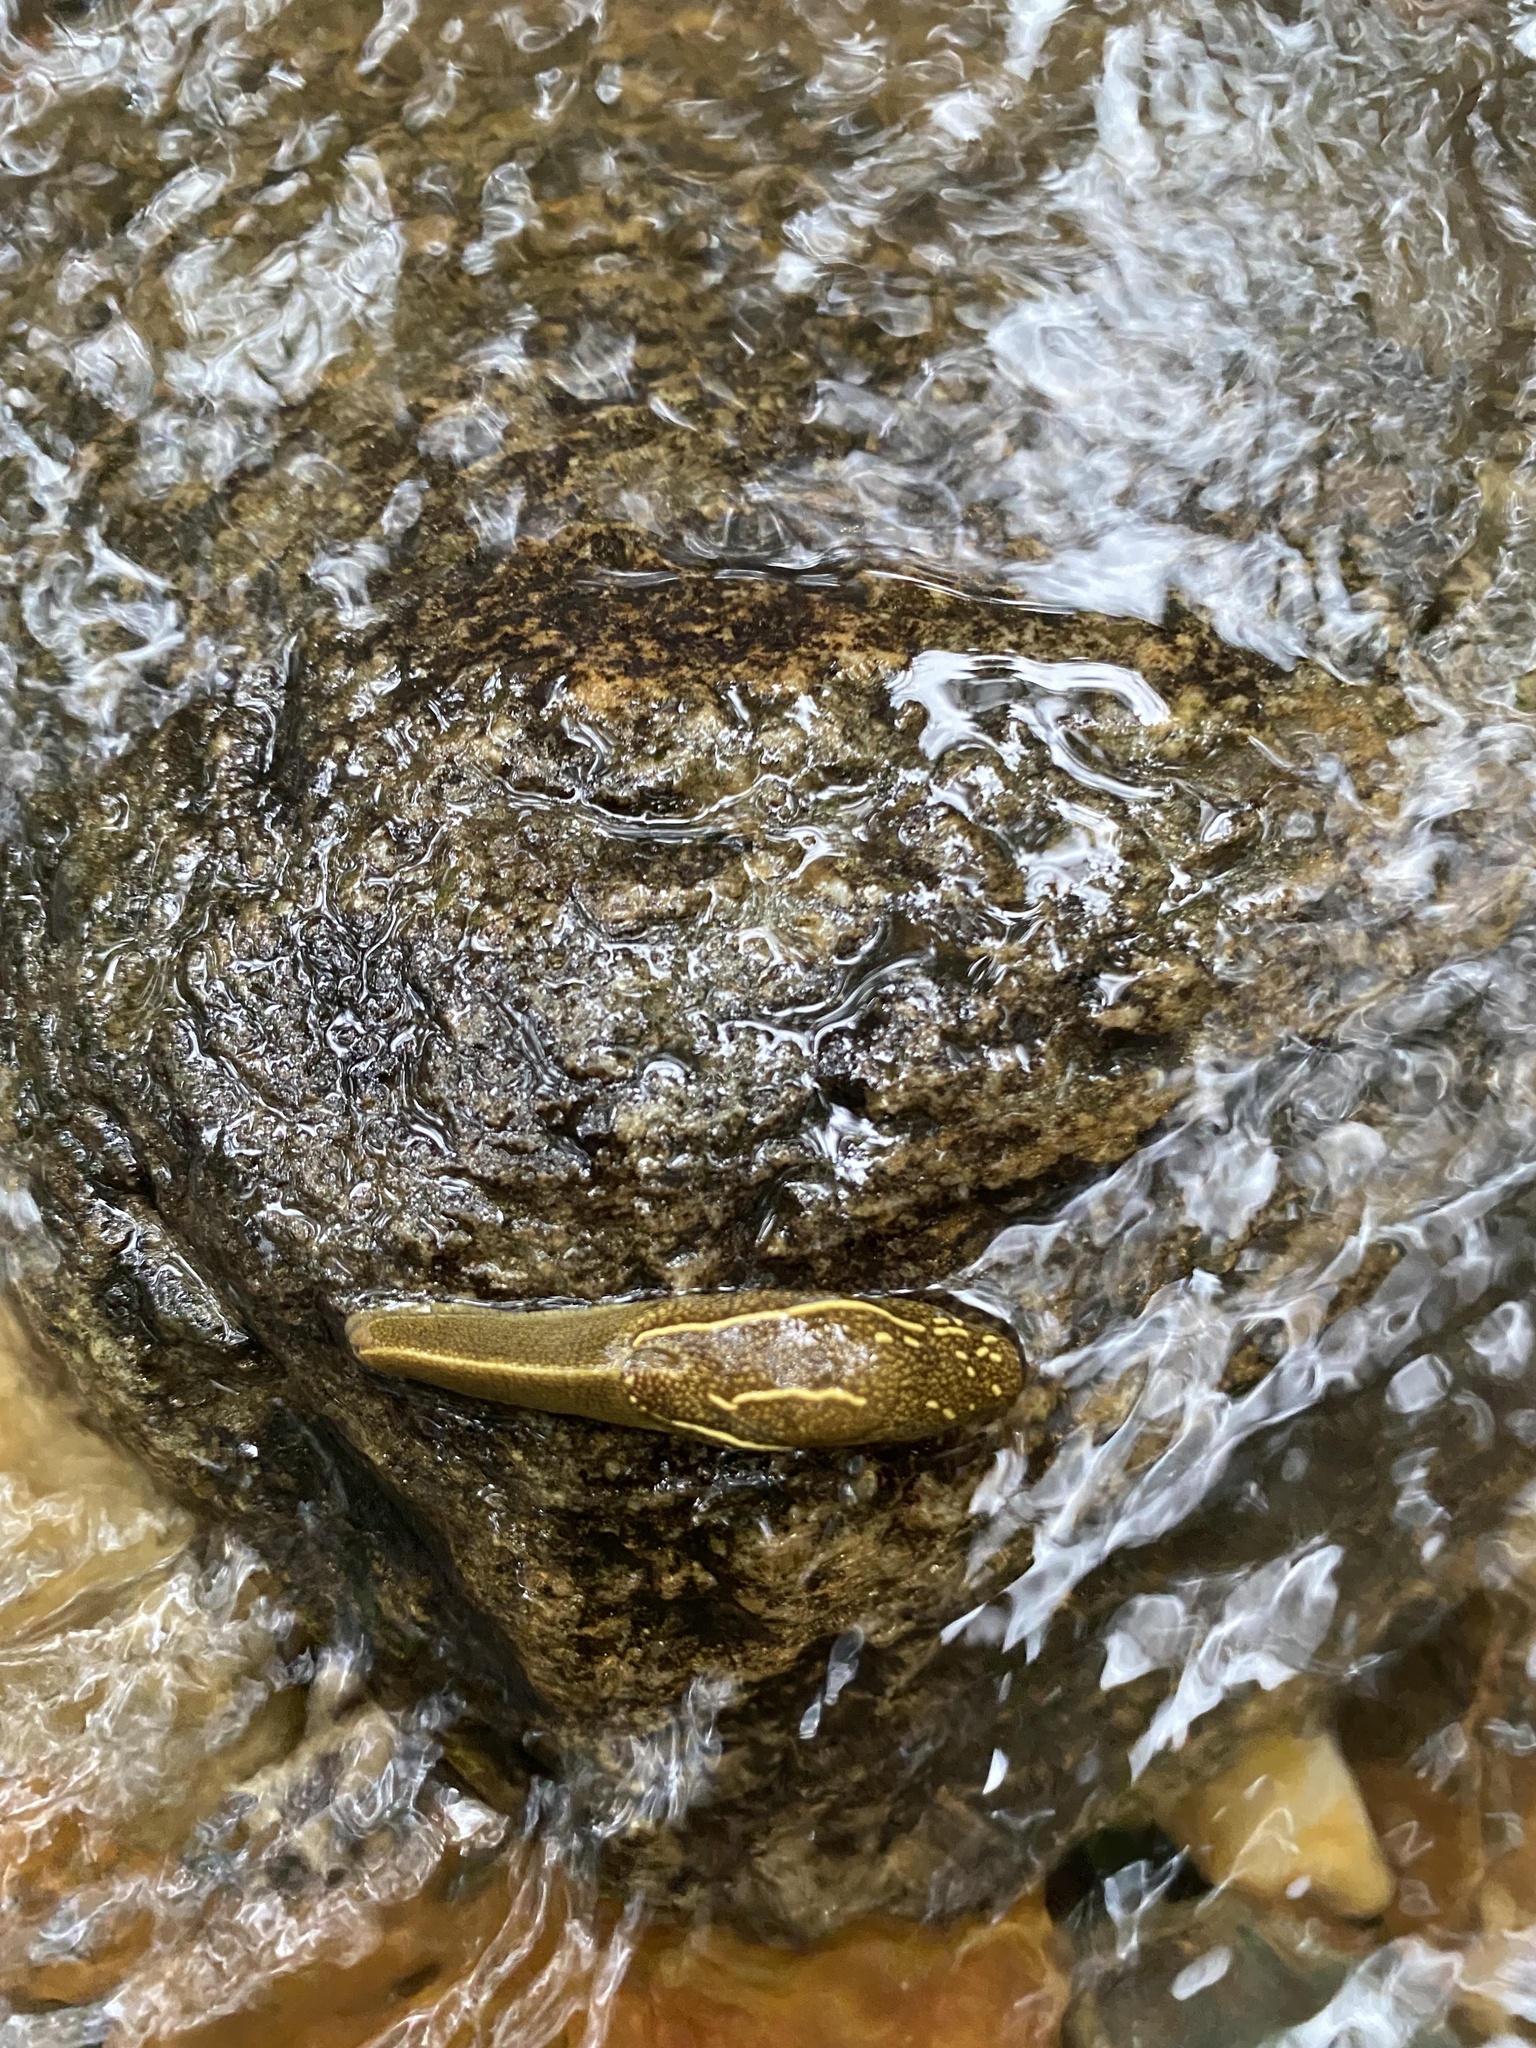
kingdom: Animalia
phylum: Mollusca
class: Gastropoda
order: Stylommatophora
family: Ariophantidae
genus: Mariaella
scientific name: Mariaella dussumieri
